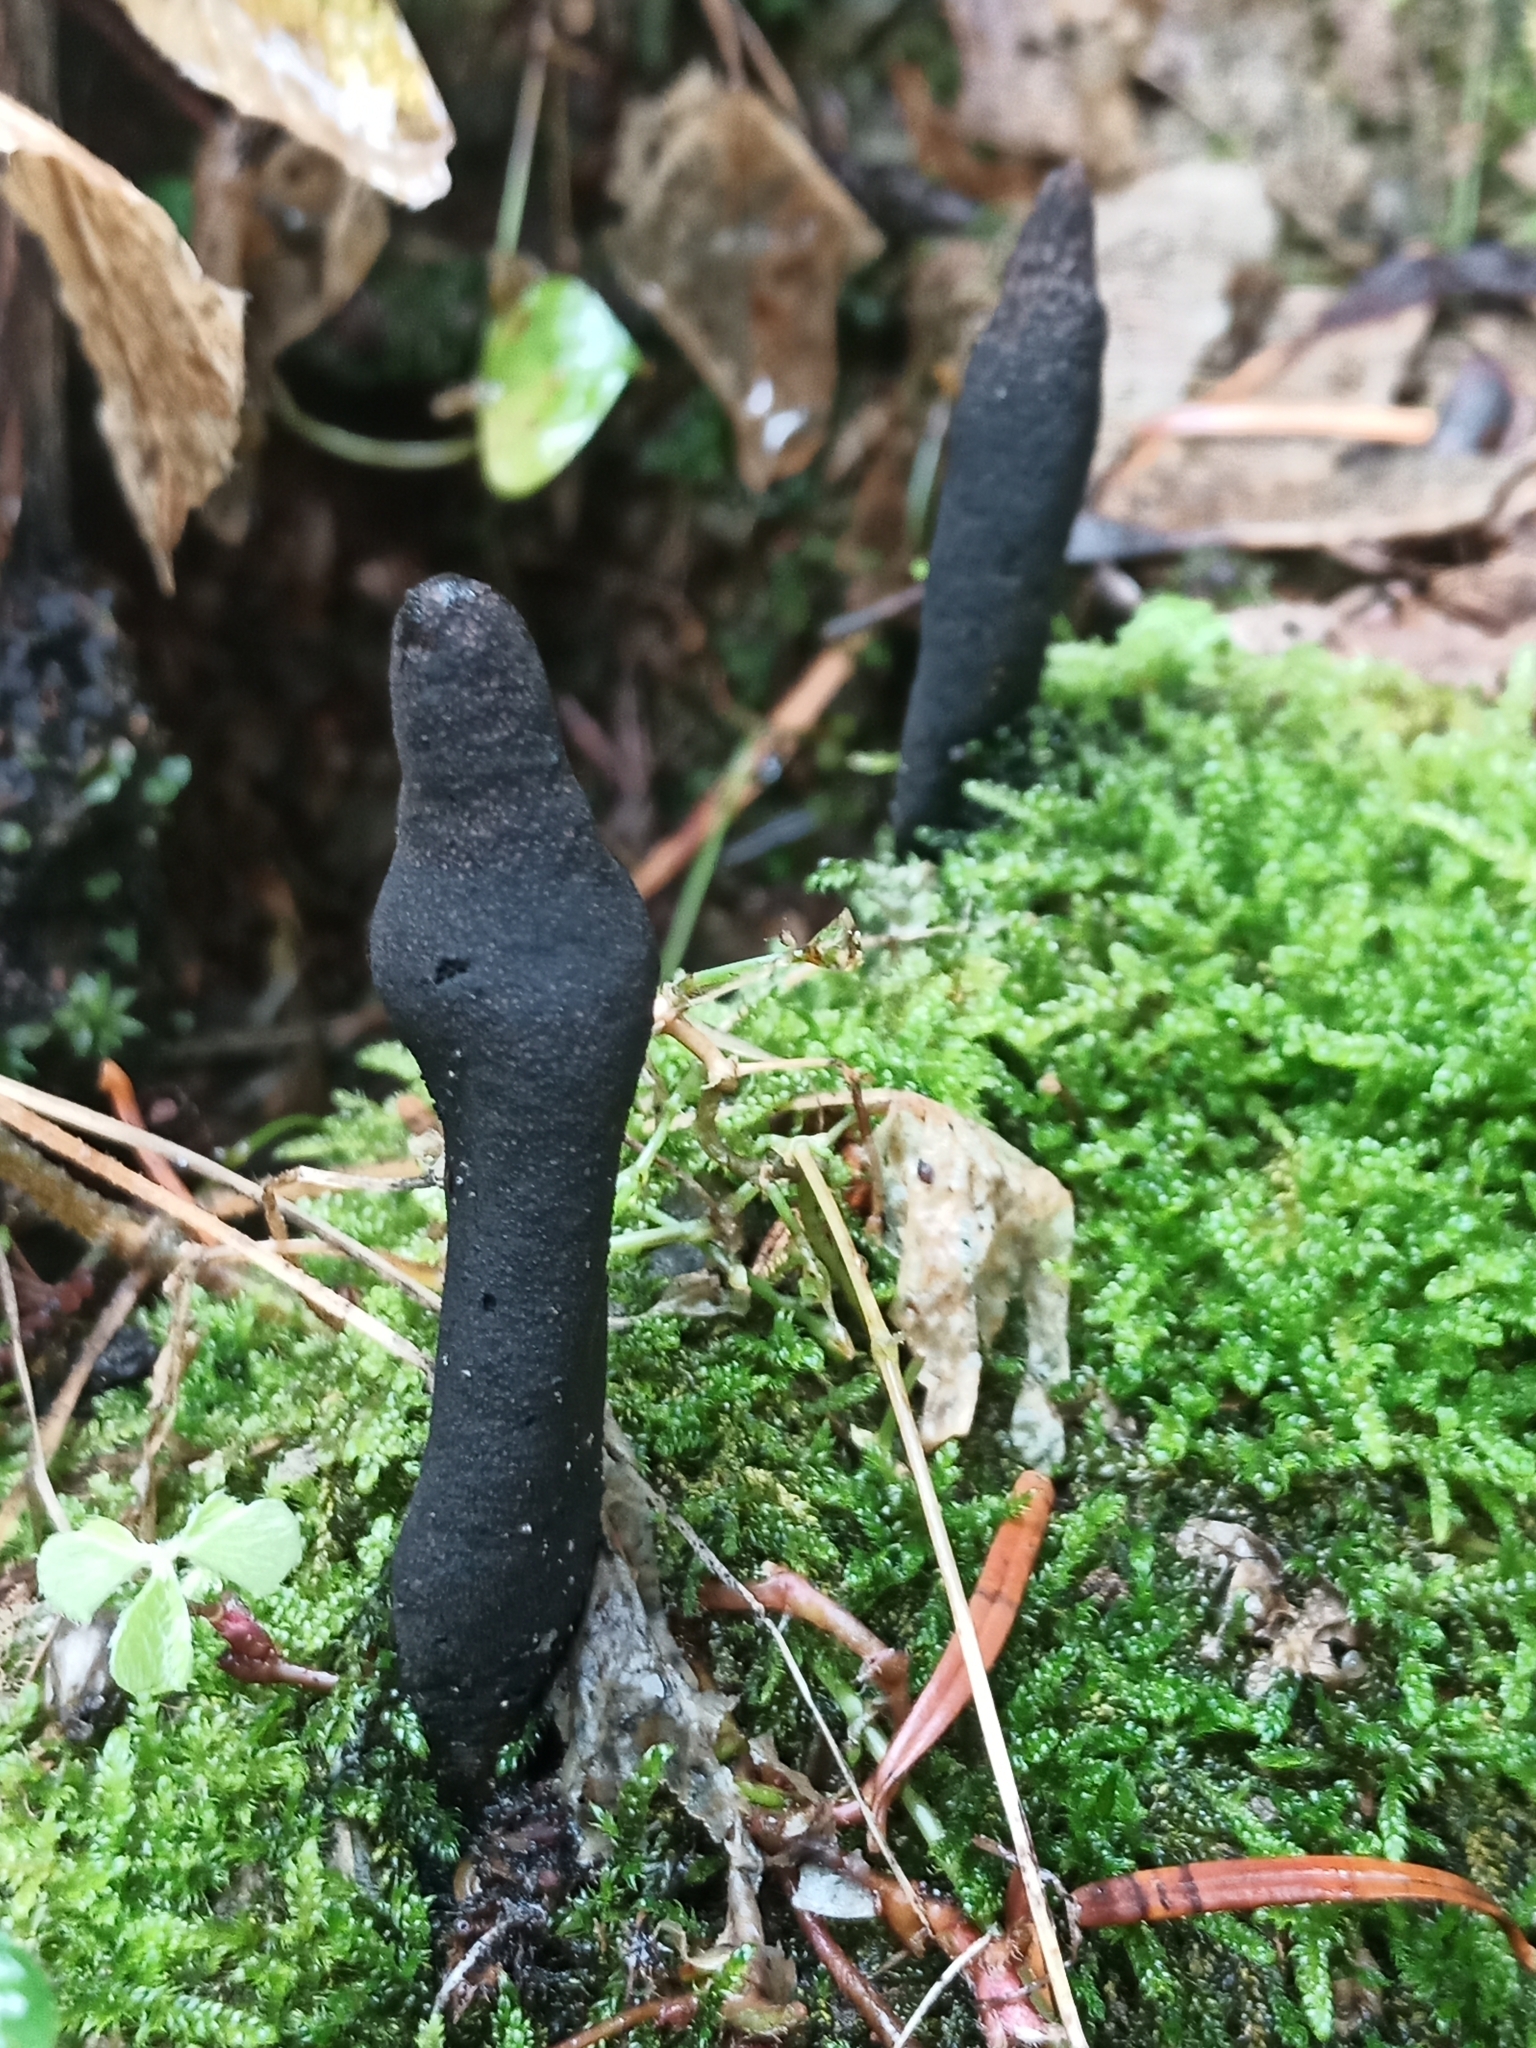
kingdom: Fungi
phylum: Ascomycota
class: Sordariomycetes
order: Xylariales
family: Xylariaceae
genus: Xylaria
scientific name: Xylaria polymorpha
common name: Dead man's fingers
